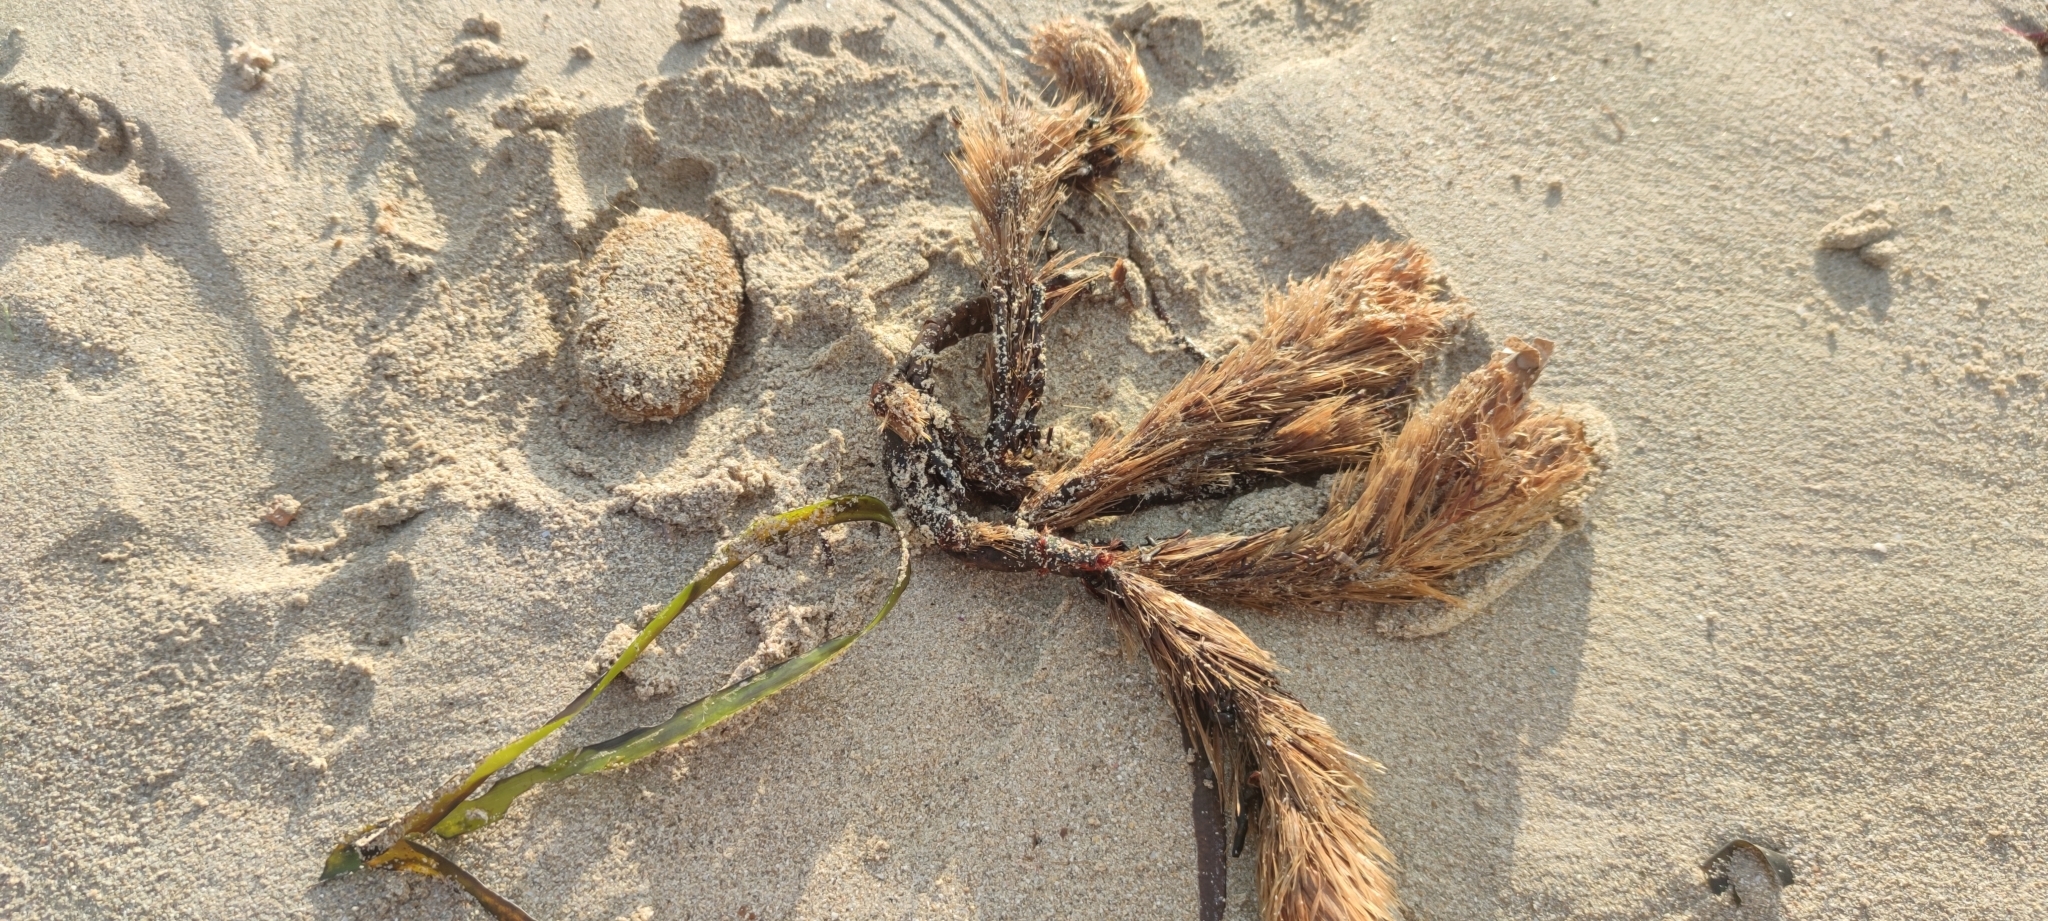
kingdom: Plantae
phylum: Tracheophyta
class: Liliopsida
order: Alismatales
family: Posidoniaceae
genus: Posidonia
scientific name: Posidonia oceanica
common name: Mediterranean tapeweed
